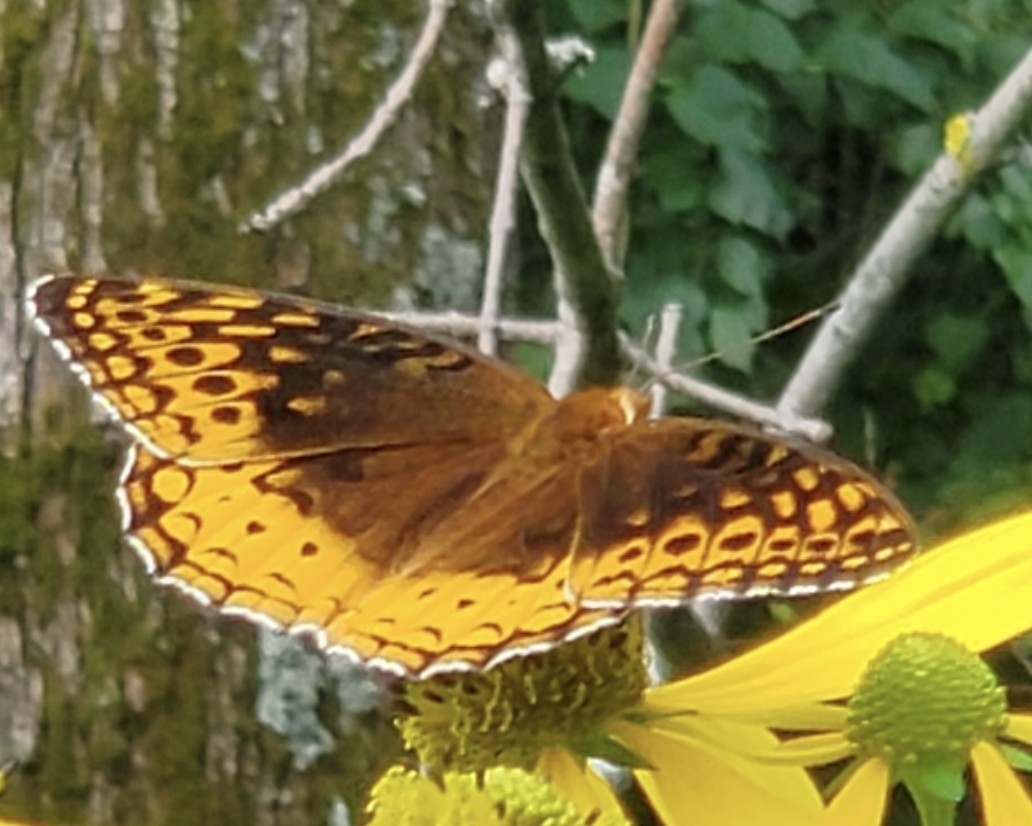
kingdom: Animalia
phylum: Arthropoda
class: Insecta
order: Lepidoptera
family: Nymphalidae
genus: Speyeria
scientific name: Speyeria cybele
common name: Great spangled fritillary
